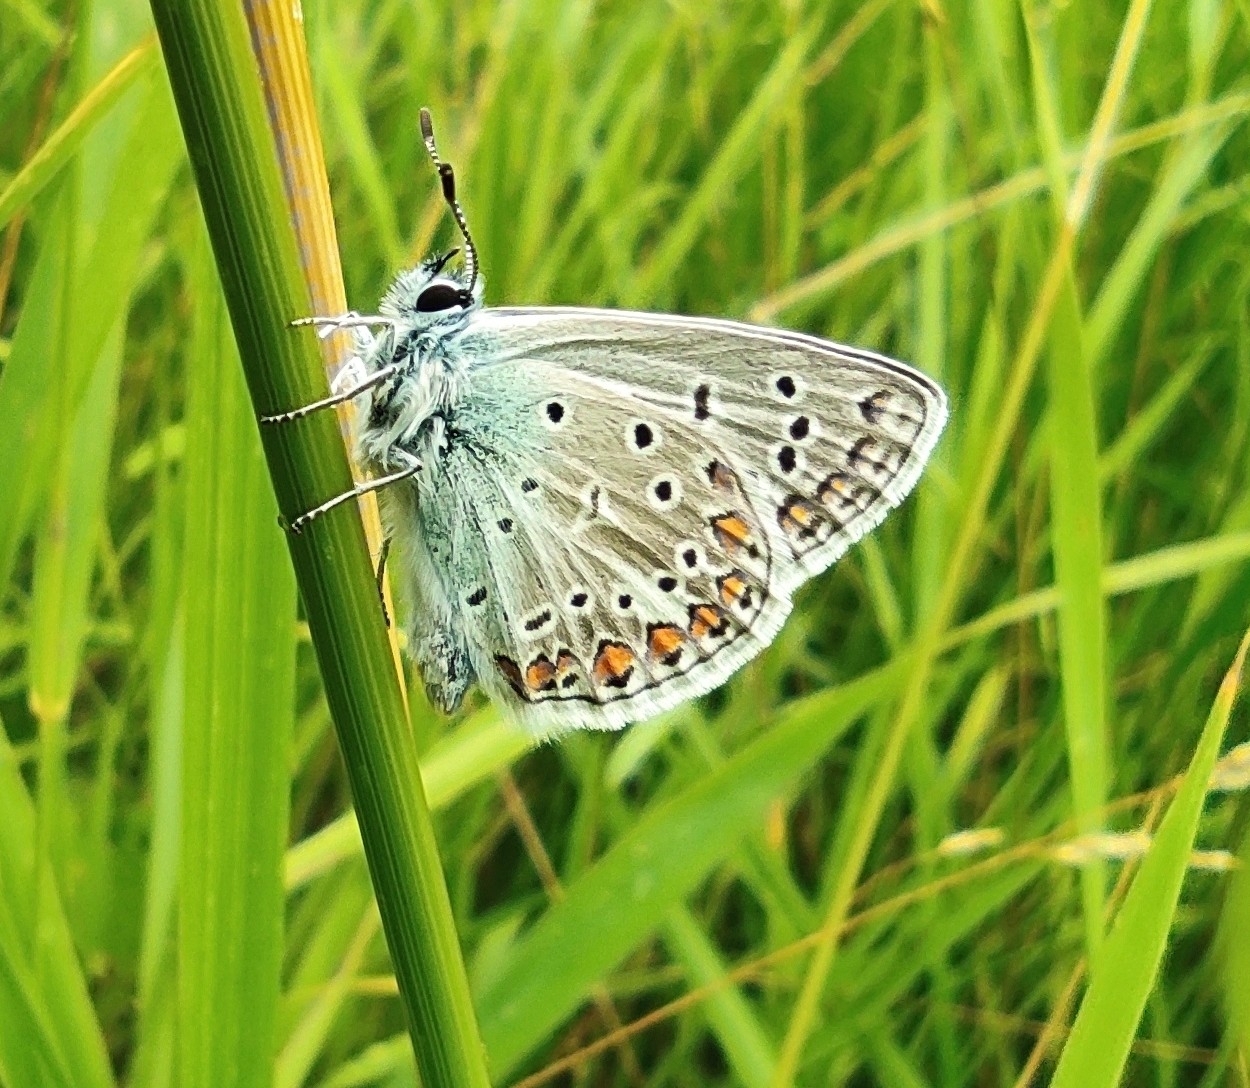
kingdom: Animalia
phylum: Arthropoda
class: Insecta
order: Lepidoptera
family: Lycaenidae
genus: Polyommatus
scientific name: Polyommatus icarus
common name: Common blue
